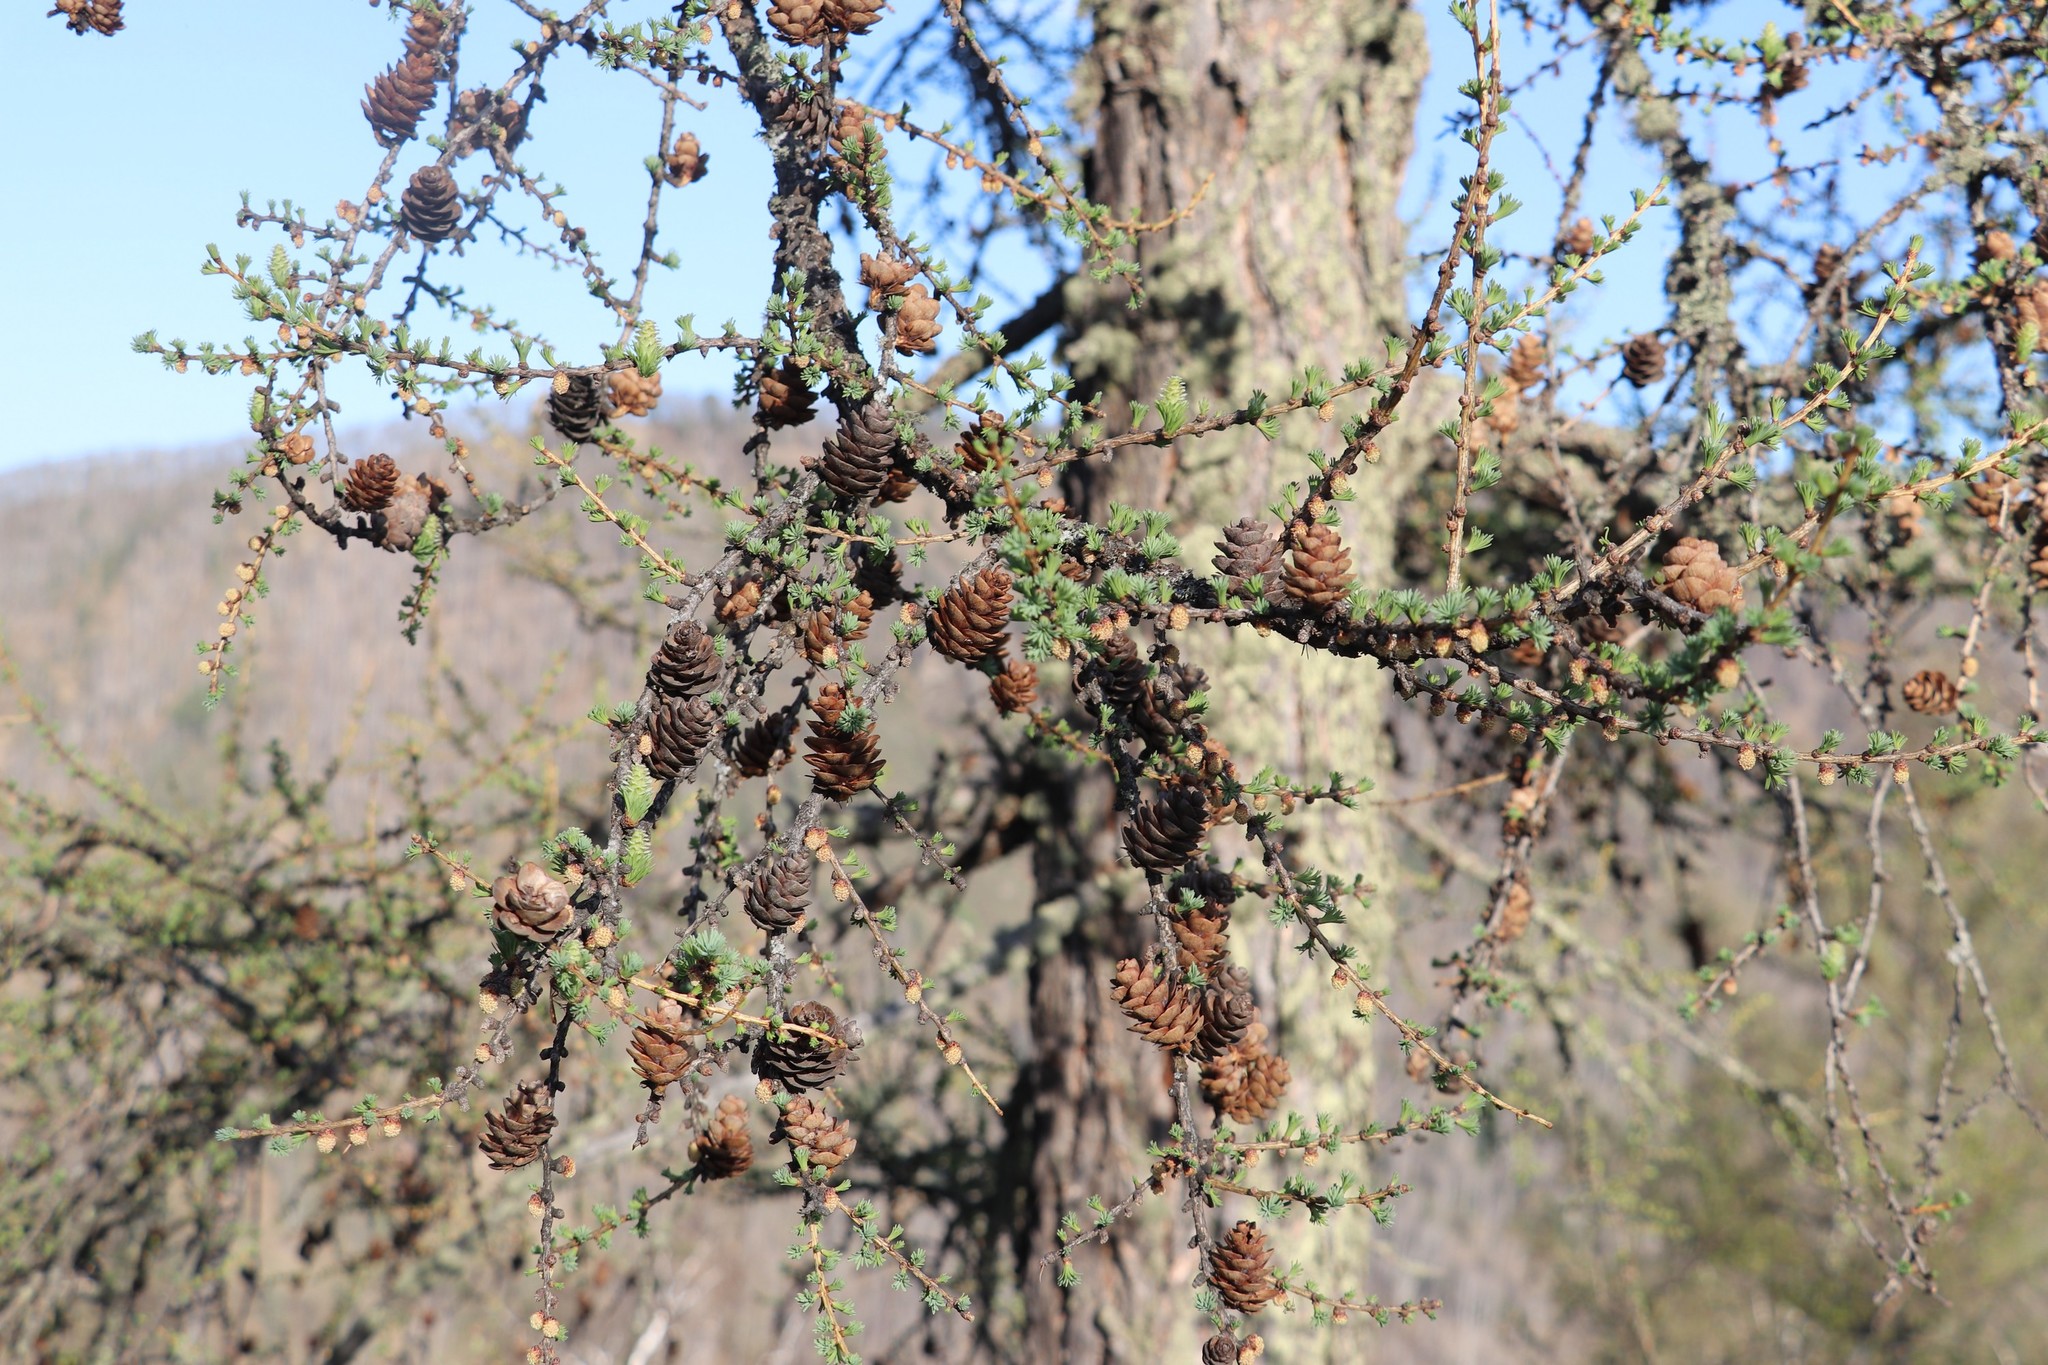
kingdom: Plantae
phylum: Tracheophyta
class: Pinopsida
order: Pinales
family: Pinaceae
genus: Larix
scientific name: Larix sibirica
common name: Siberian larch
